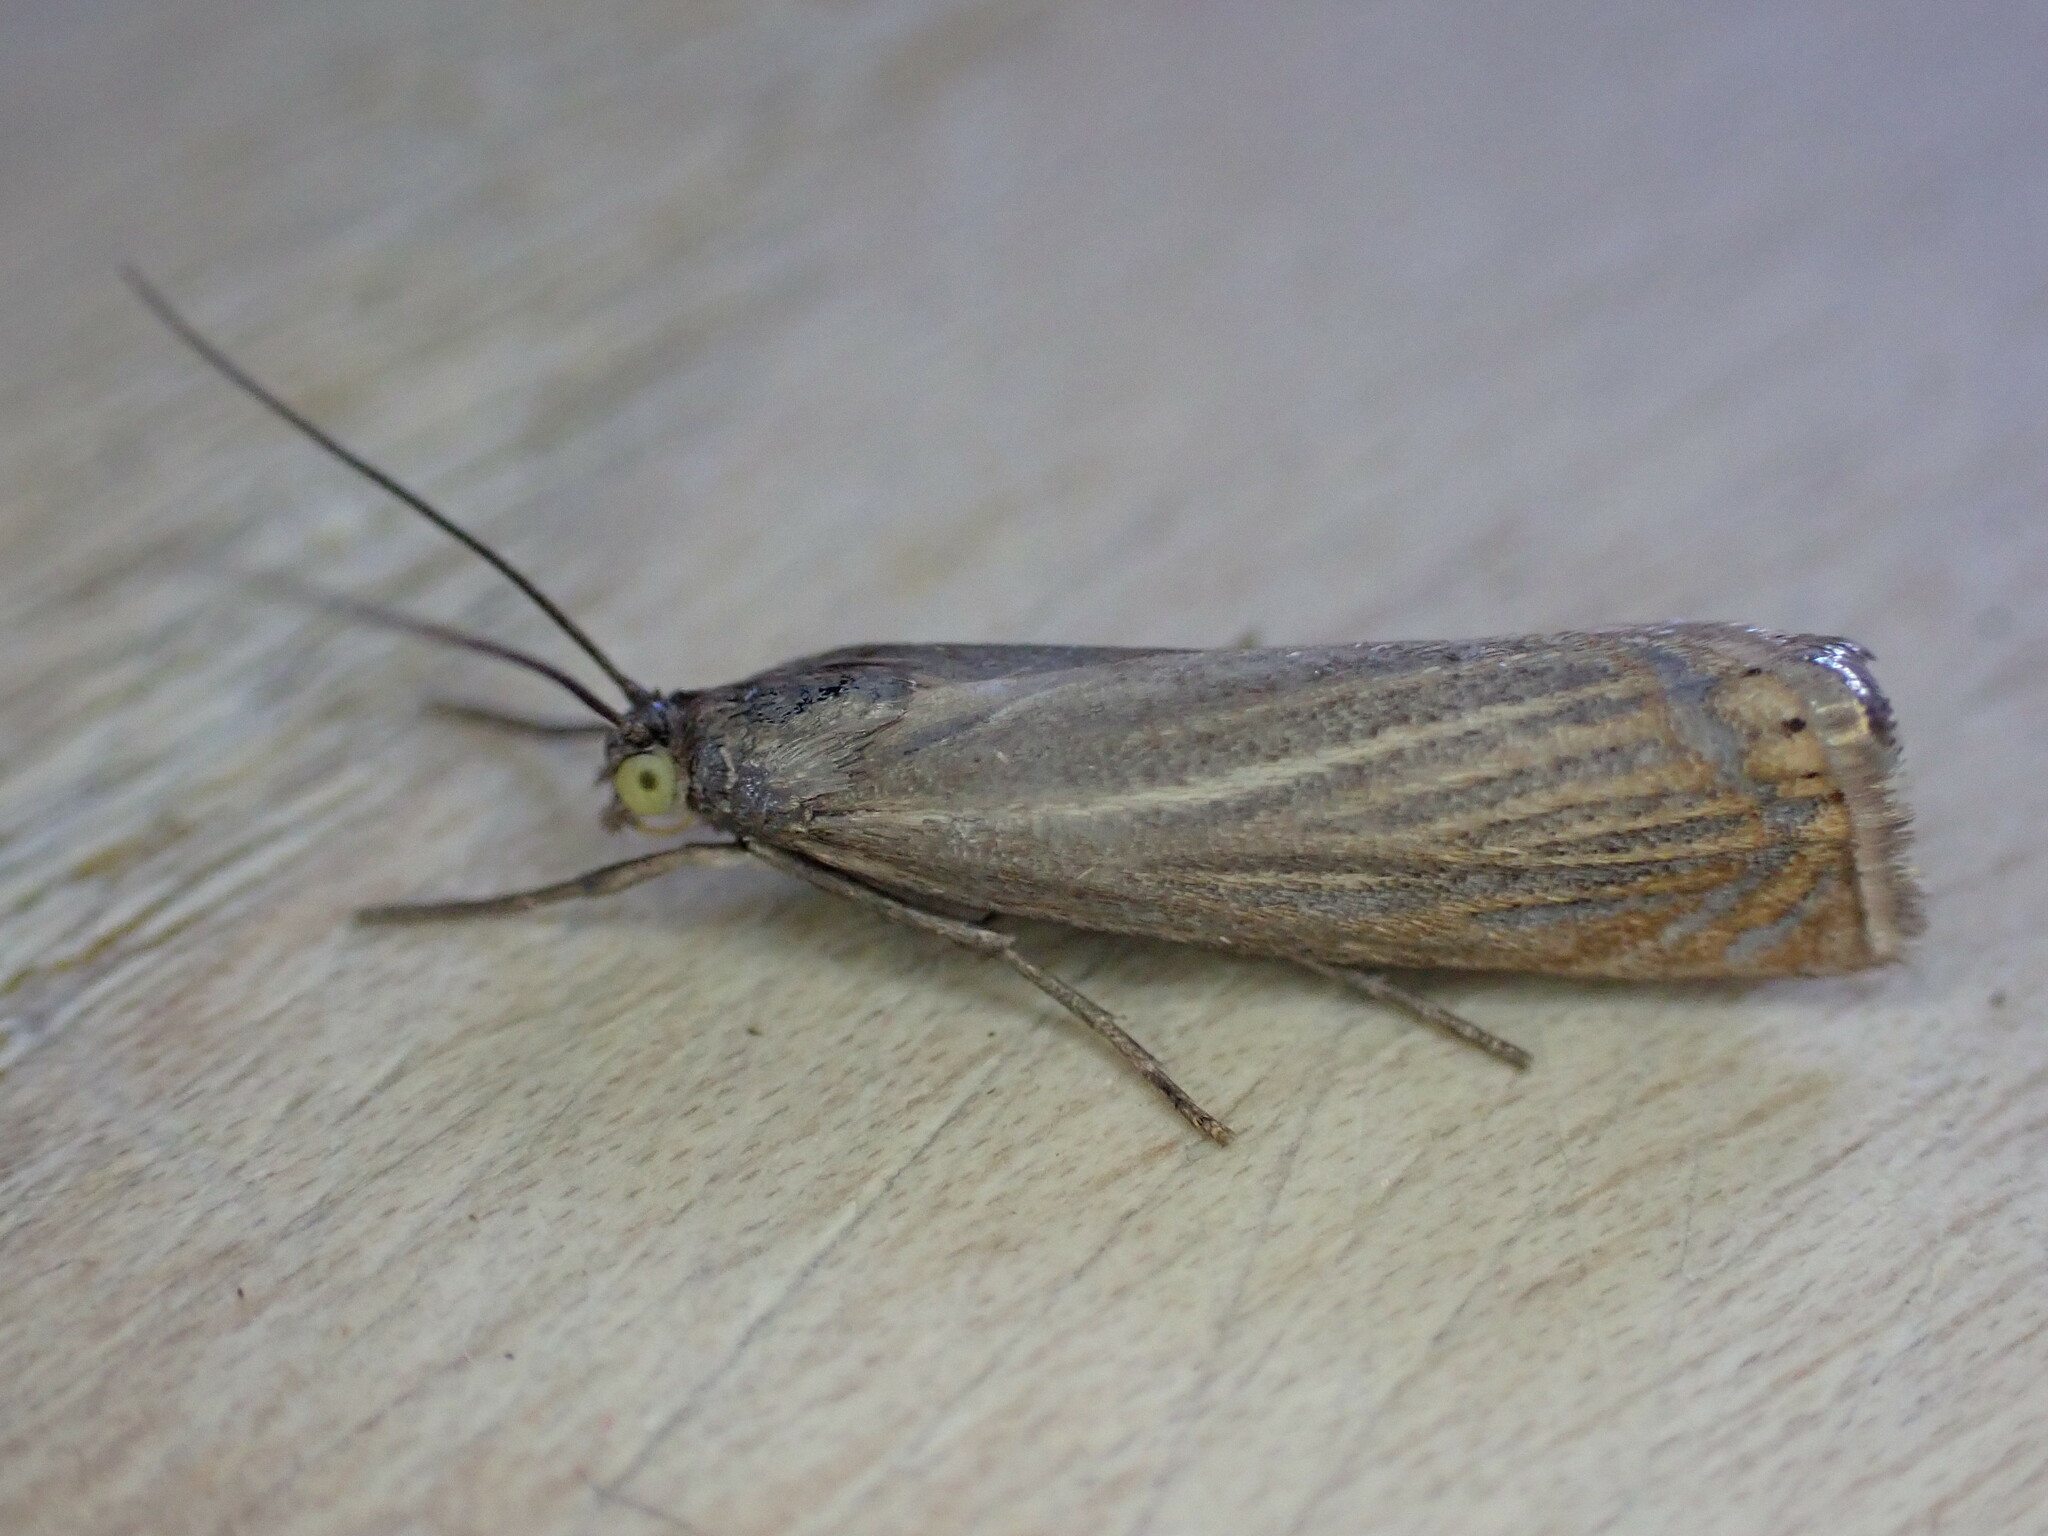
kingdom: Animalia
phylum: Arthropoda
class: Insecta
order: Lepidoptera
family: Crambidae
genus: Chrysoteuchia
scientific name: Chrysoteuchia culmella
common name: Garden grass-veneer
